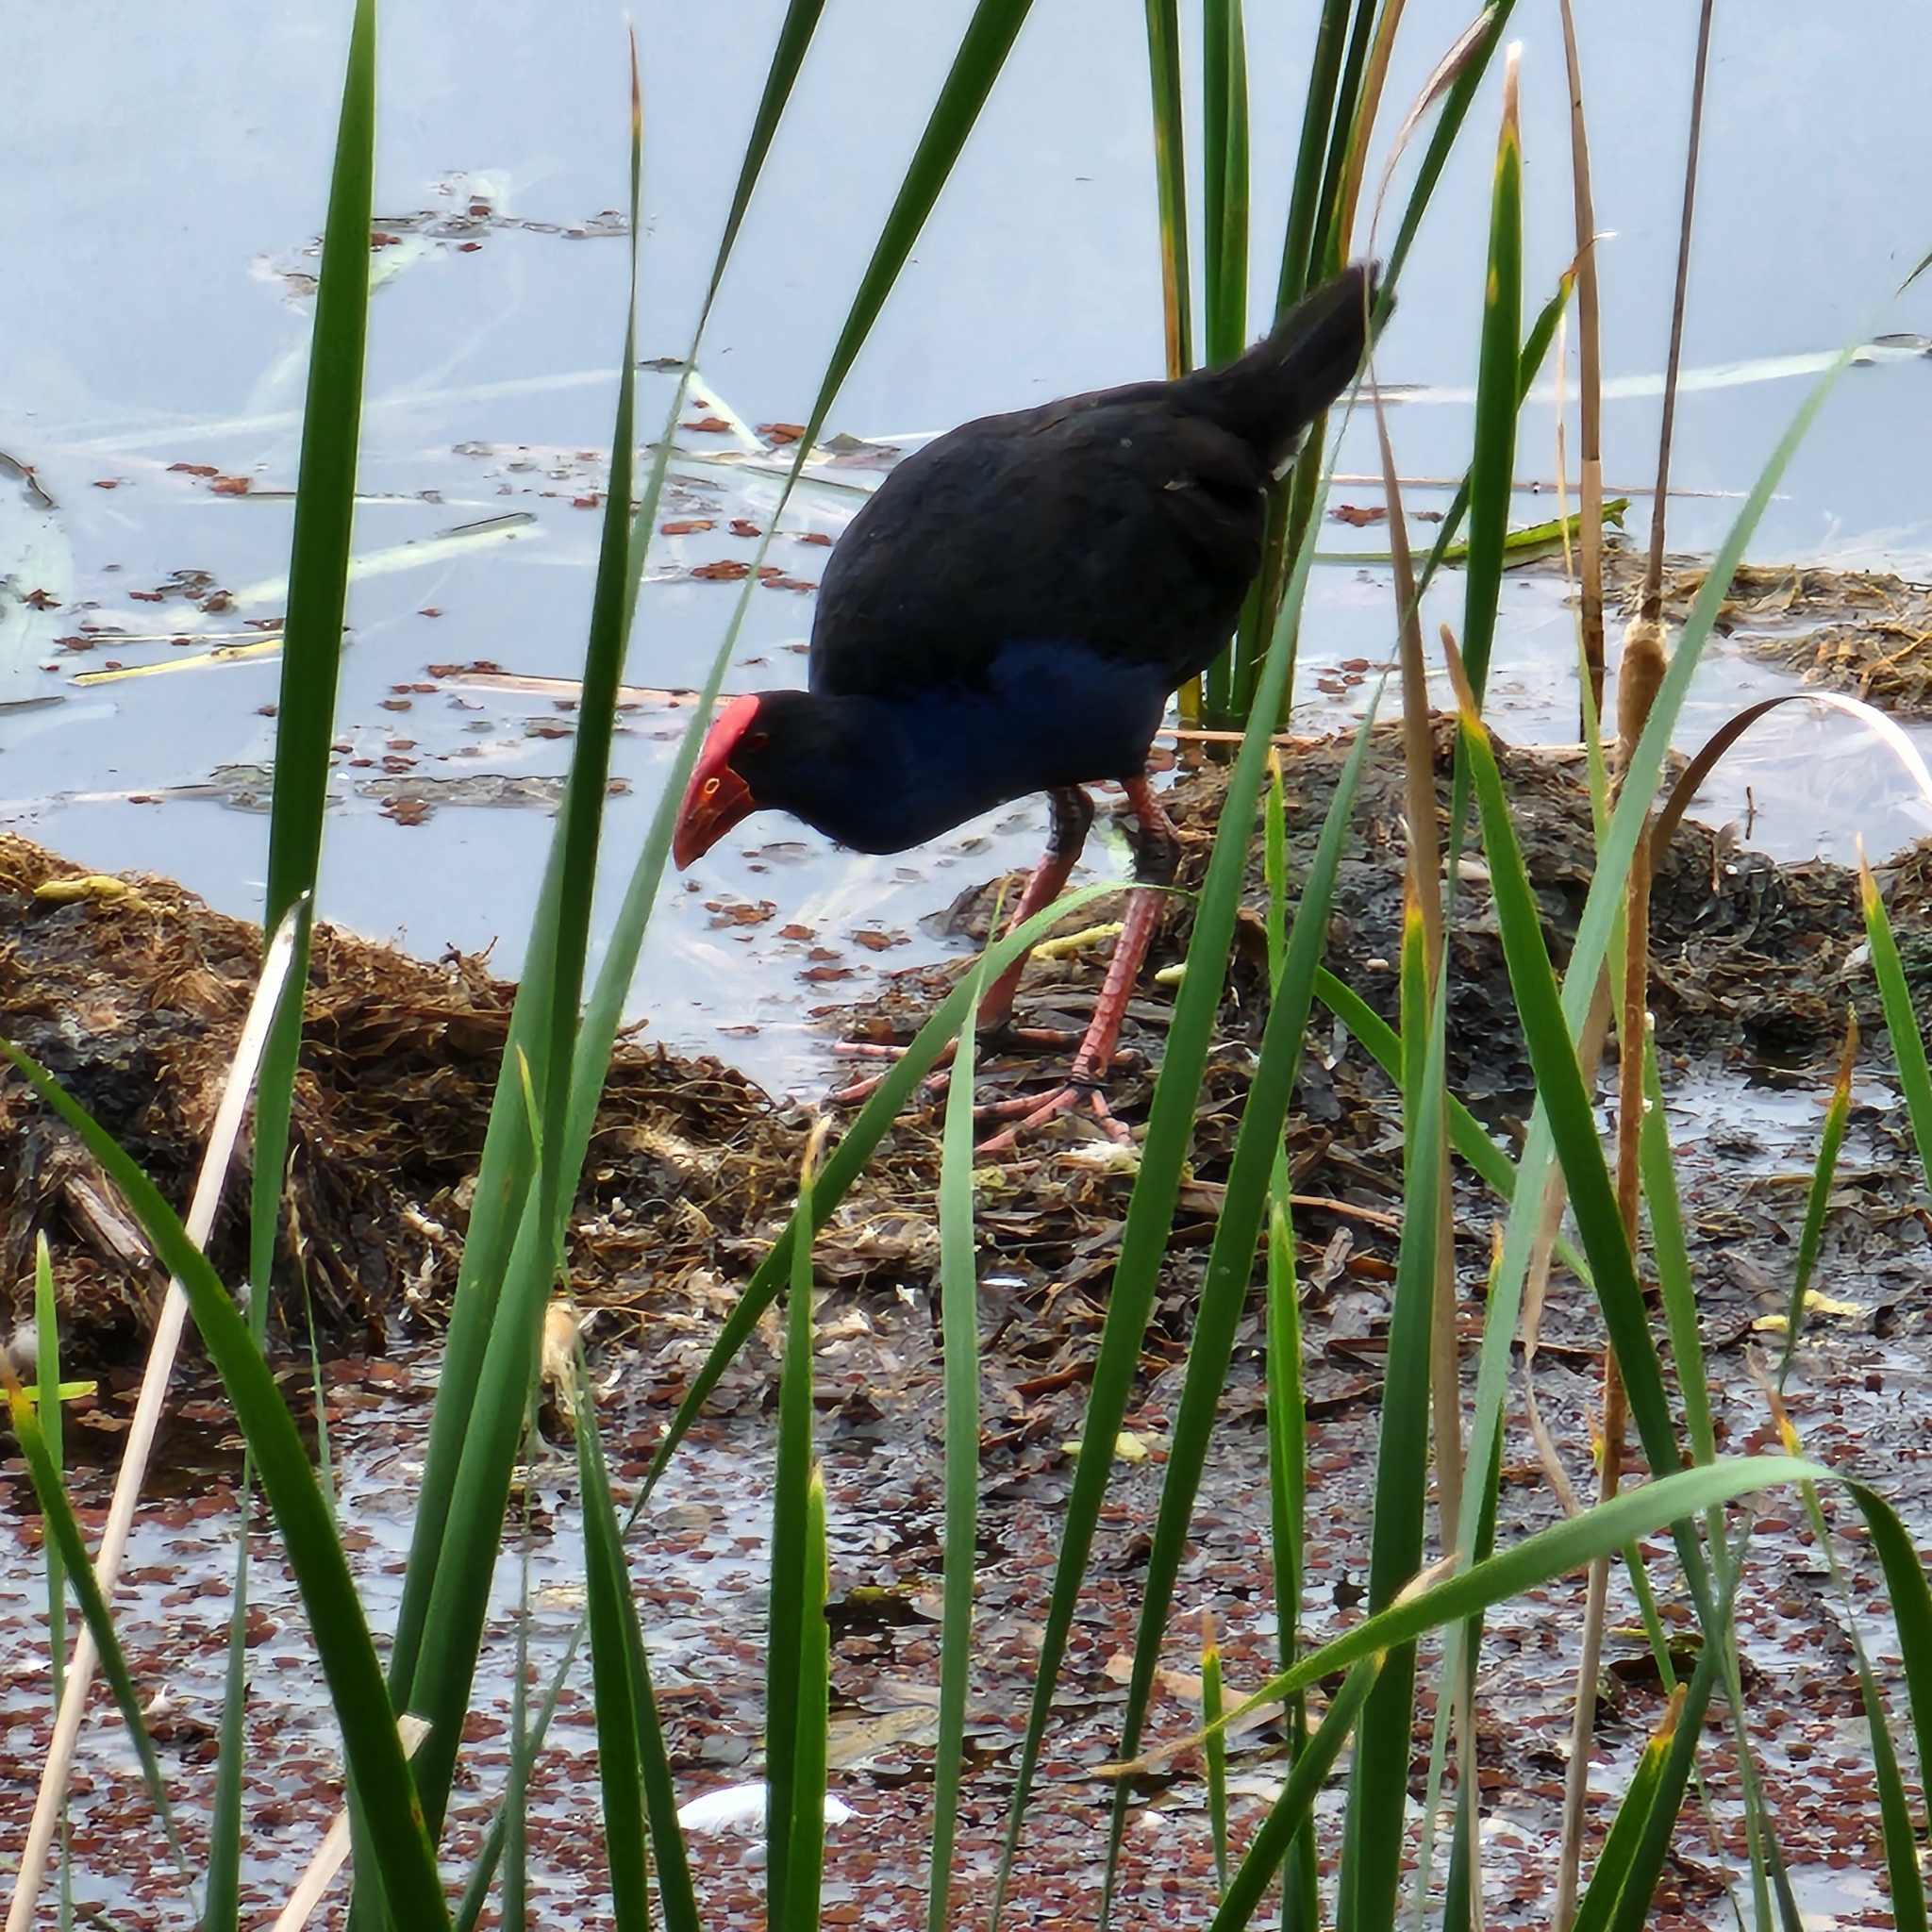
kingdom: Animalia
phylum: Chordata
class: Aves
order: Gruiformes
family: Rallidae
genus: Porphyrio
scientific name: Porphyrio melanotus
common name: Australasian swamphen
